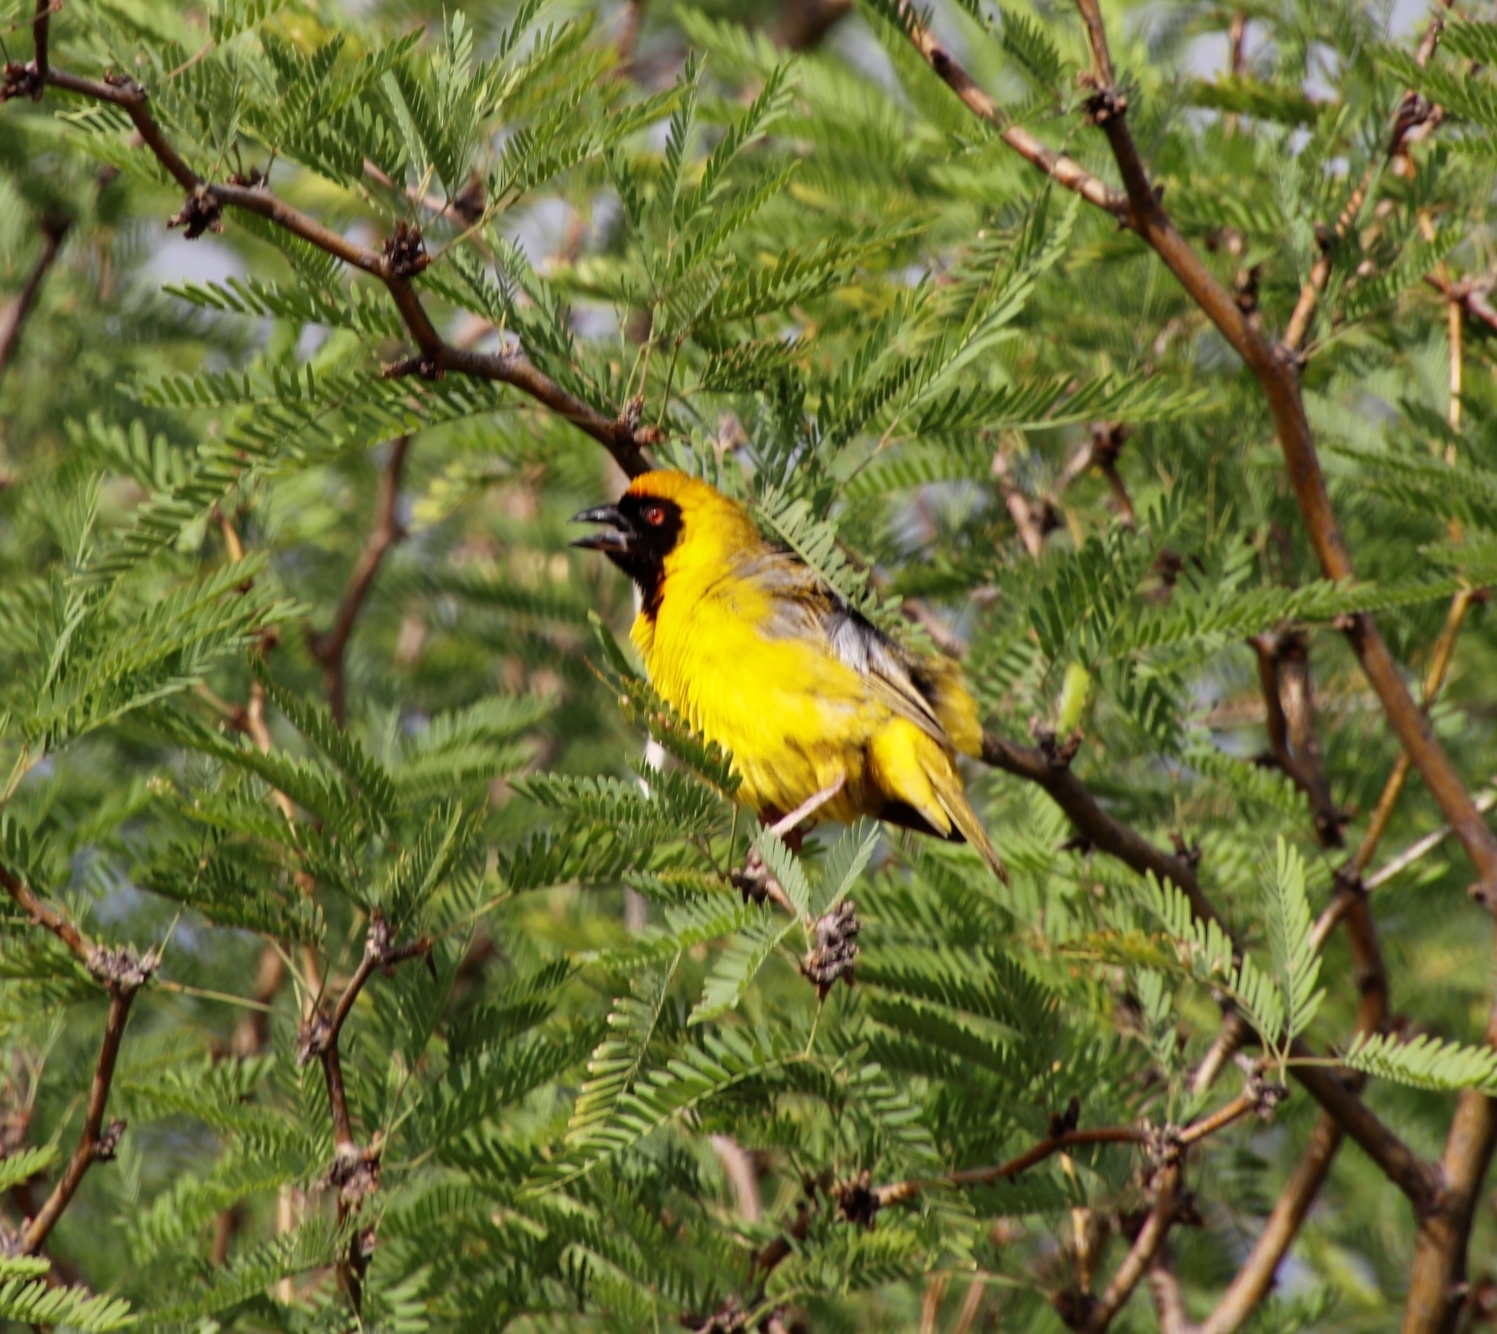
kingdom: Animalia
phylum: Chordata
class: Aves
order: Passeriformes
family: Ploceidae
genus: Ploceus
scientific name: Ploceus velatus
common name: Southern masked weaver
